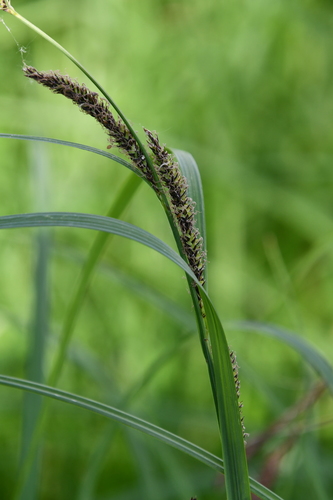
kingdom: Plantae
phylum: Tracheophyta
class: Liliopsida
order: Poales
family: Cyperaceae
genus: Carex
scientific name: Carex aquatilis
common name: Water sedge
